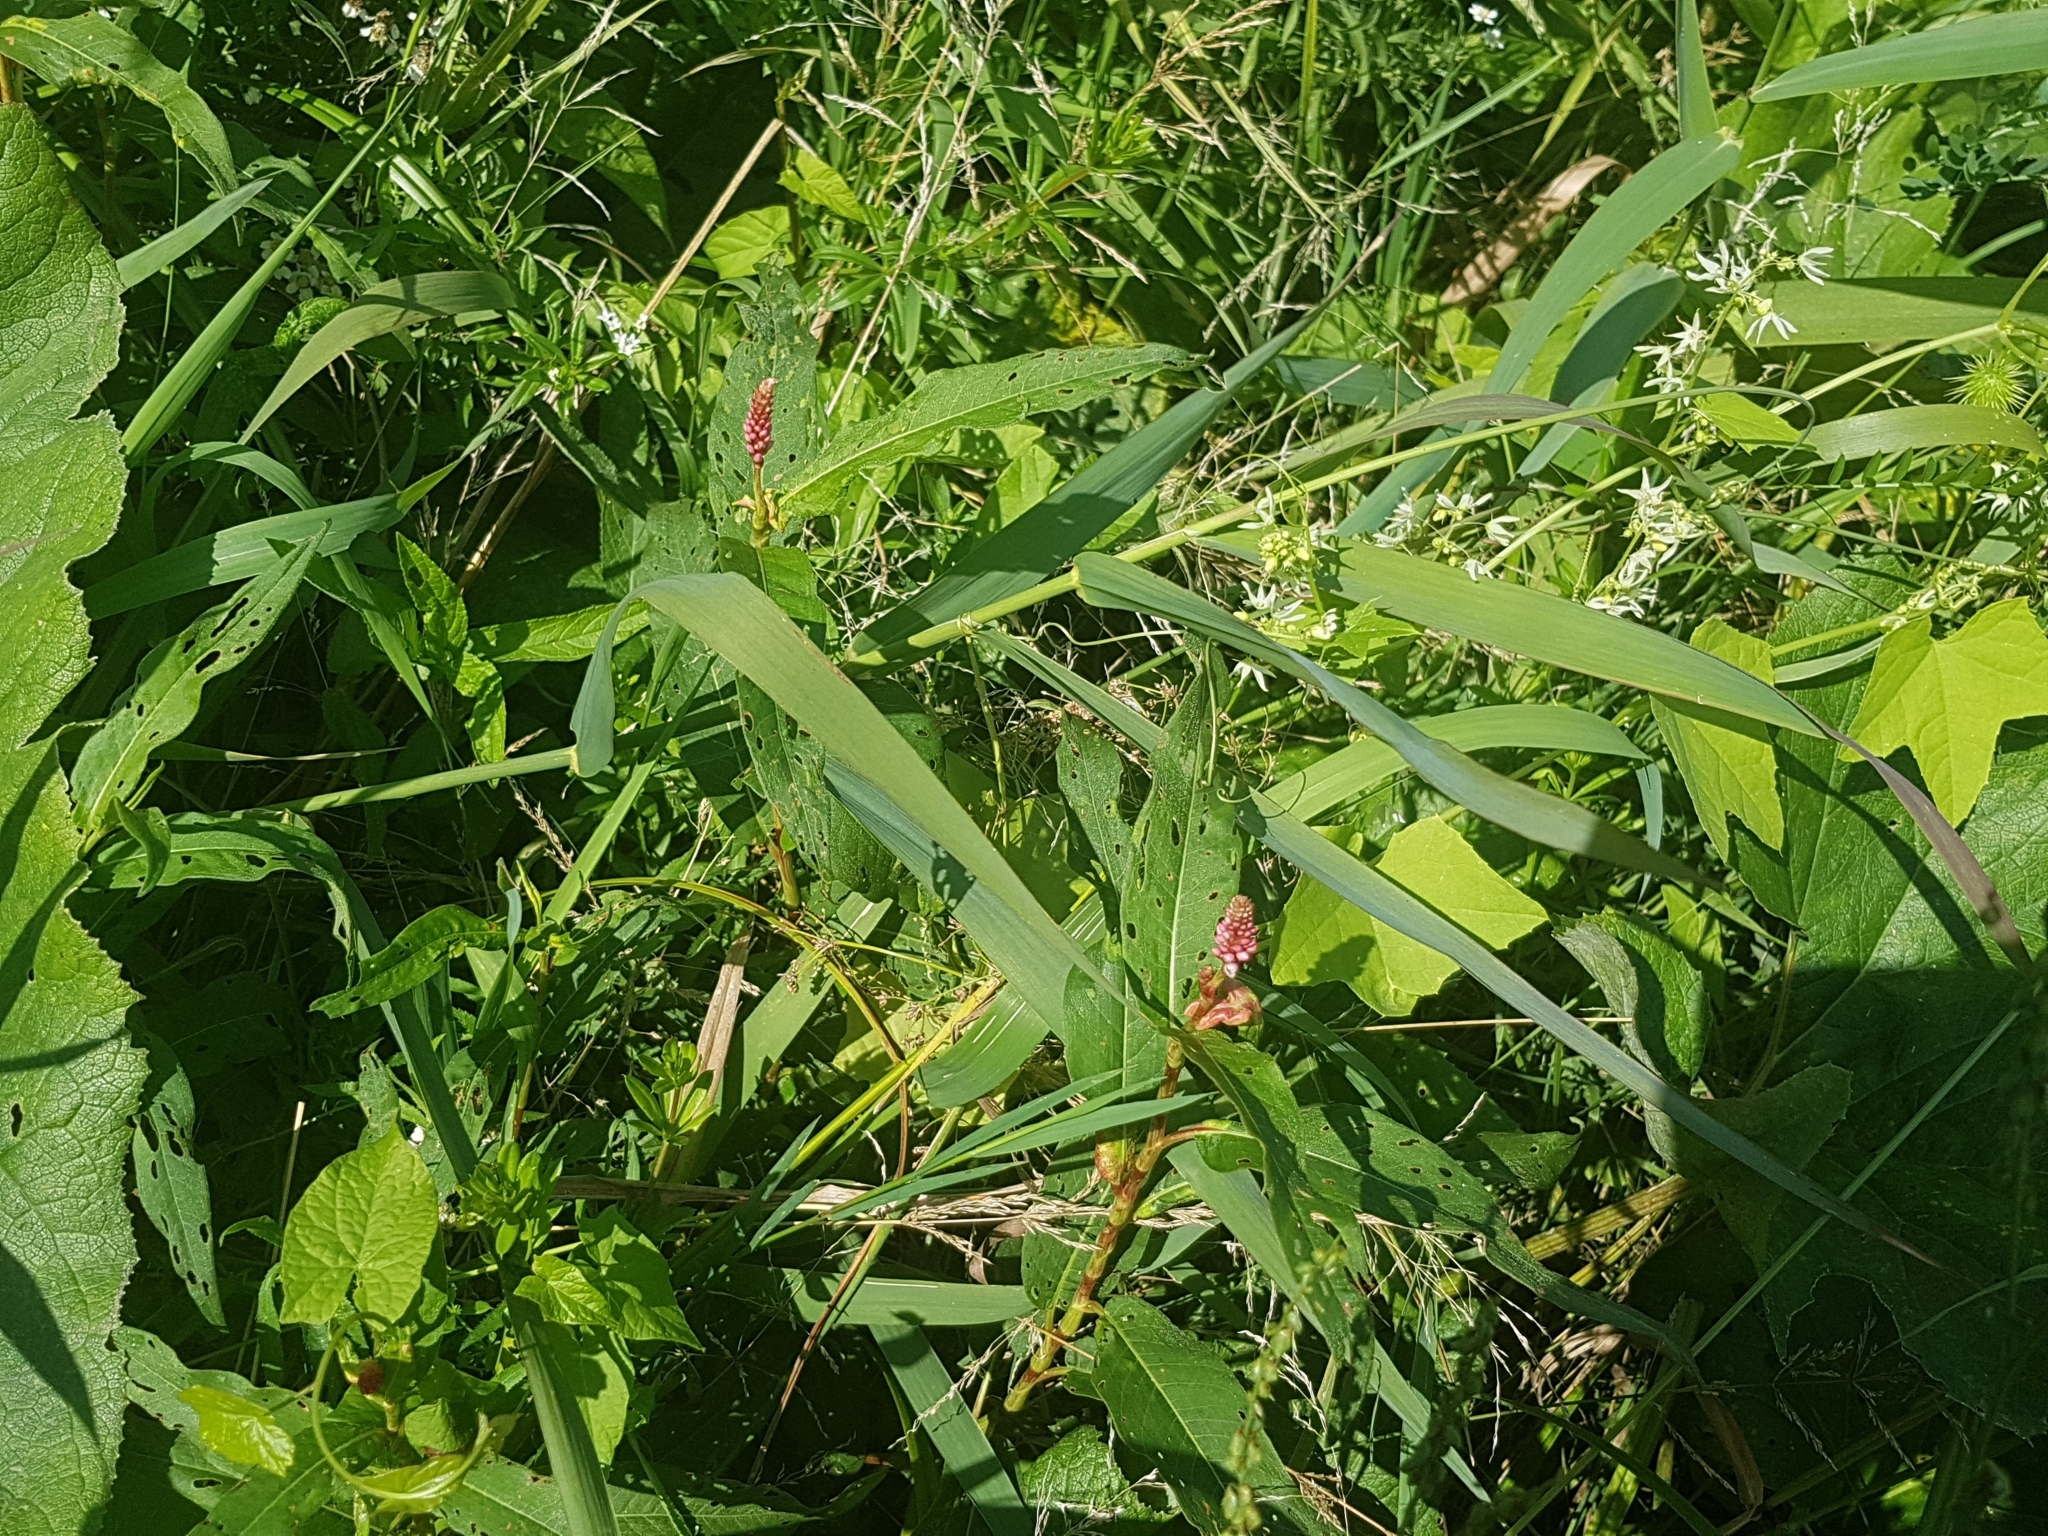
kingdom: Plantae
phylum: Tracheophyta
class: Magnoliopsida
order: Caryophyllales
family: Polygonaceae
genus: Persicaria
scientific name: Persicaria amphibia
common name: Amphibious bistort
